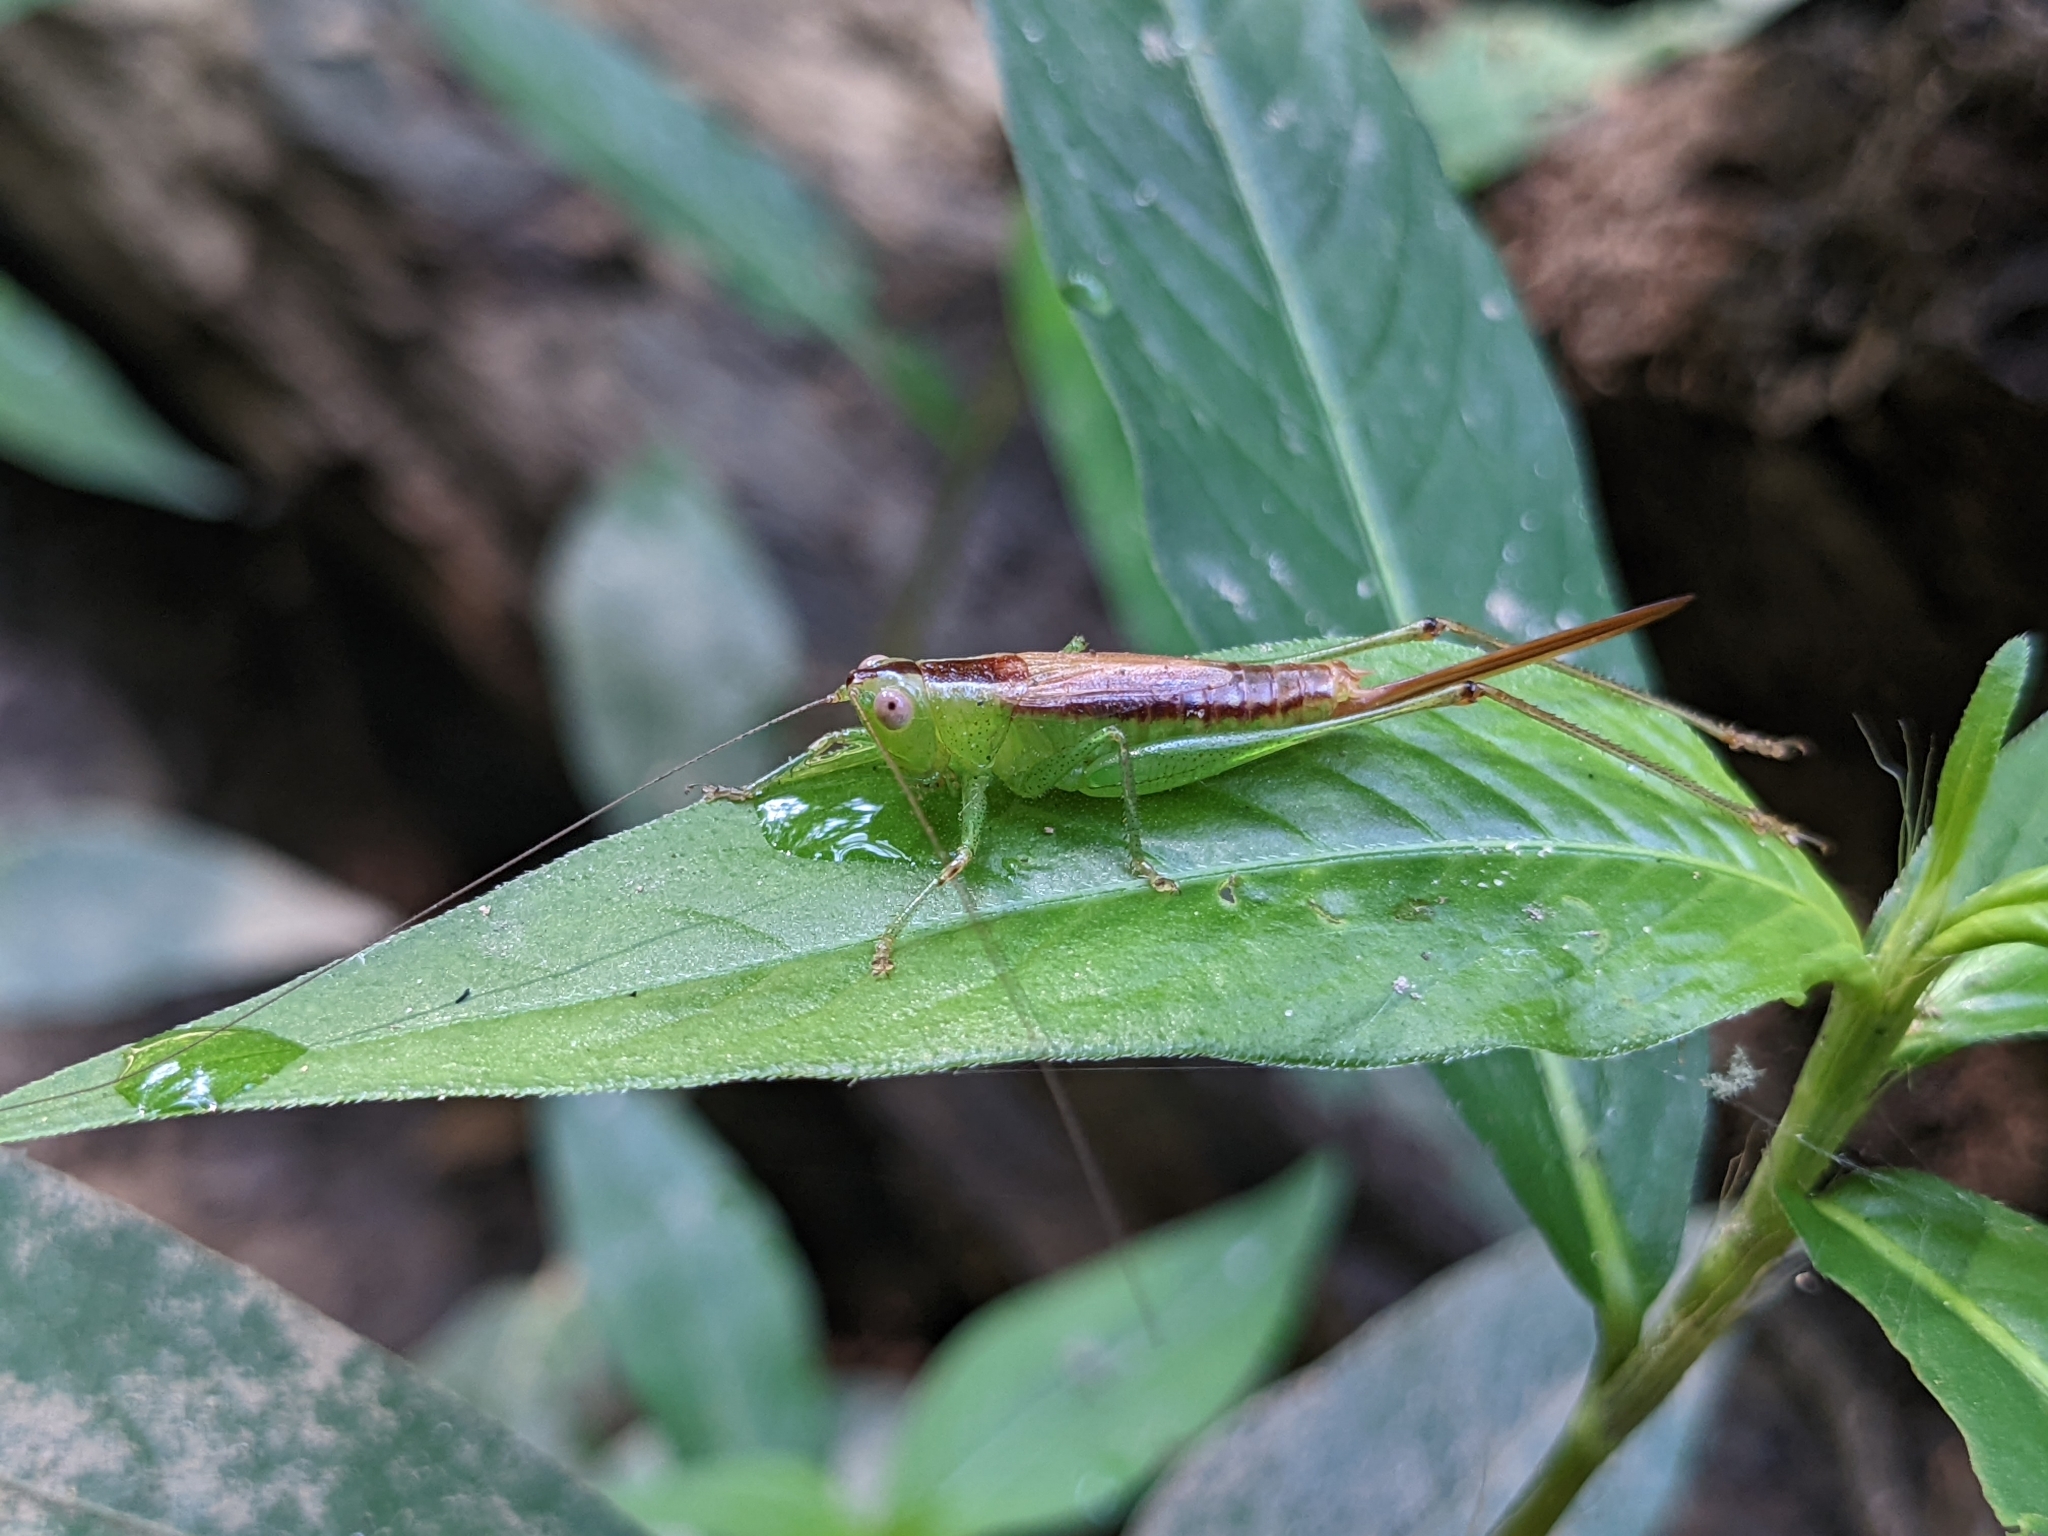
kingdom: Animalia
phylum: Arthropoda
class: Insecta
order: Orthoptera
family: Tettigoniidae
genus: Conocephalus
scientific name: Conocephalus brevipennis
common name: Short-winged meadow katydid
